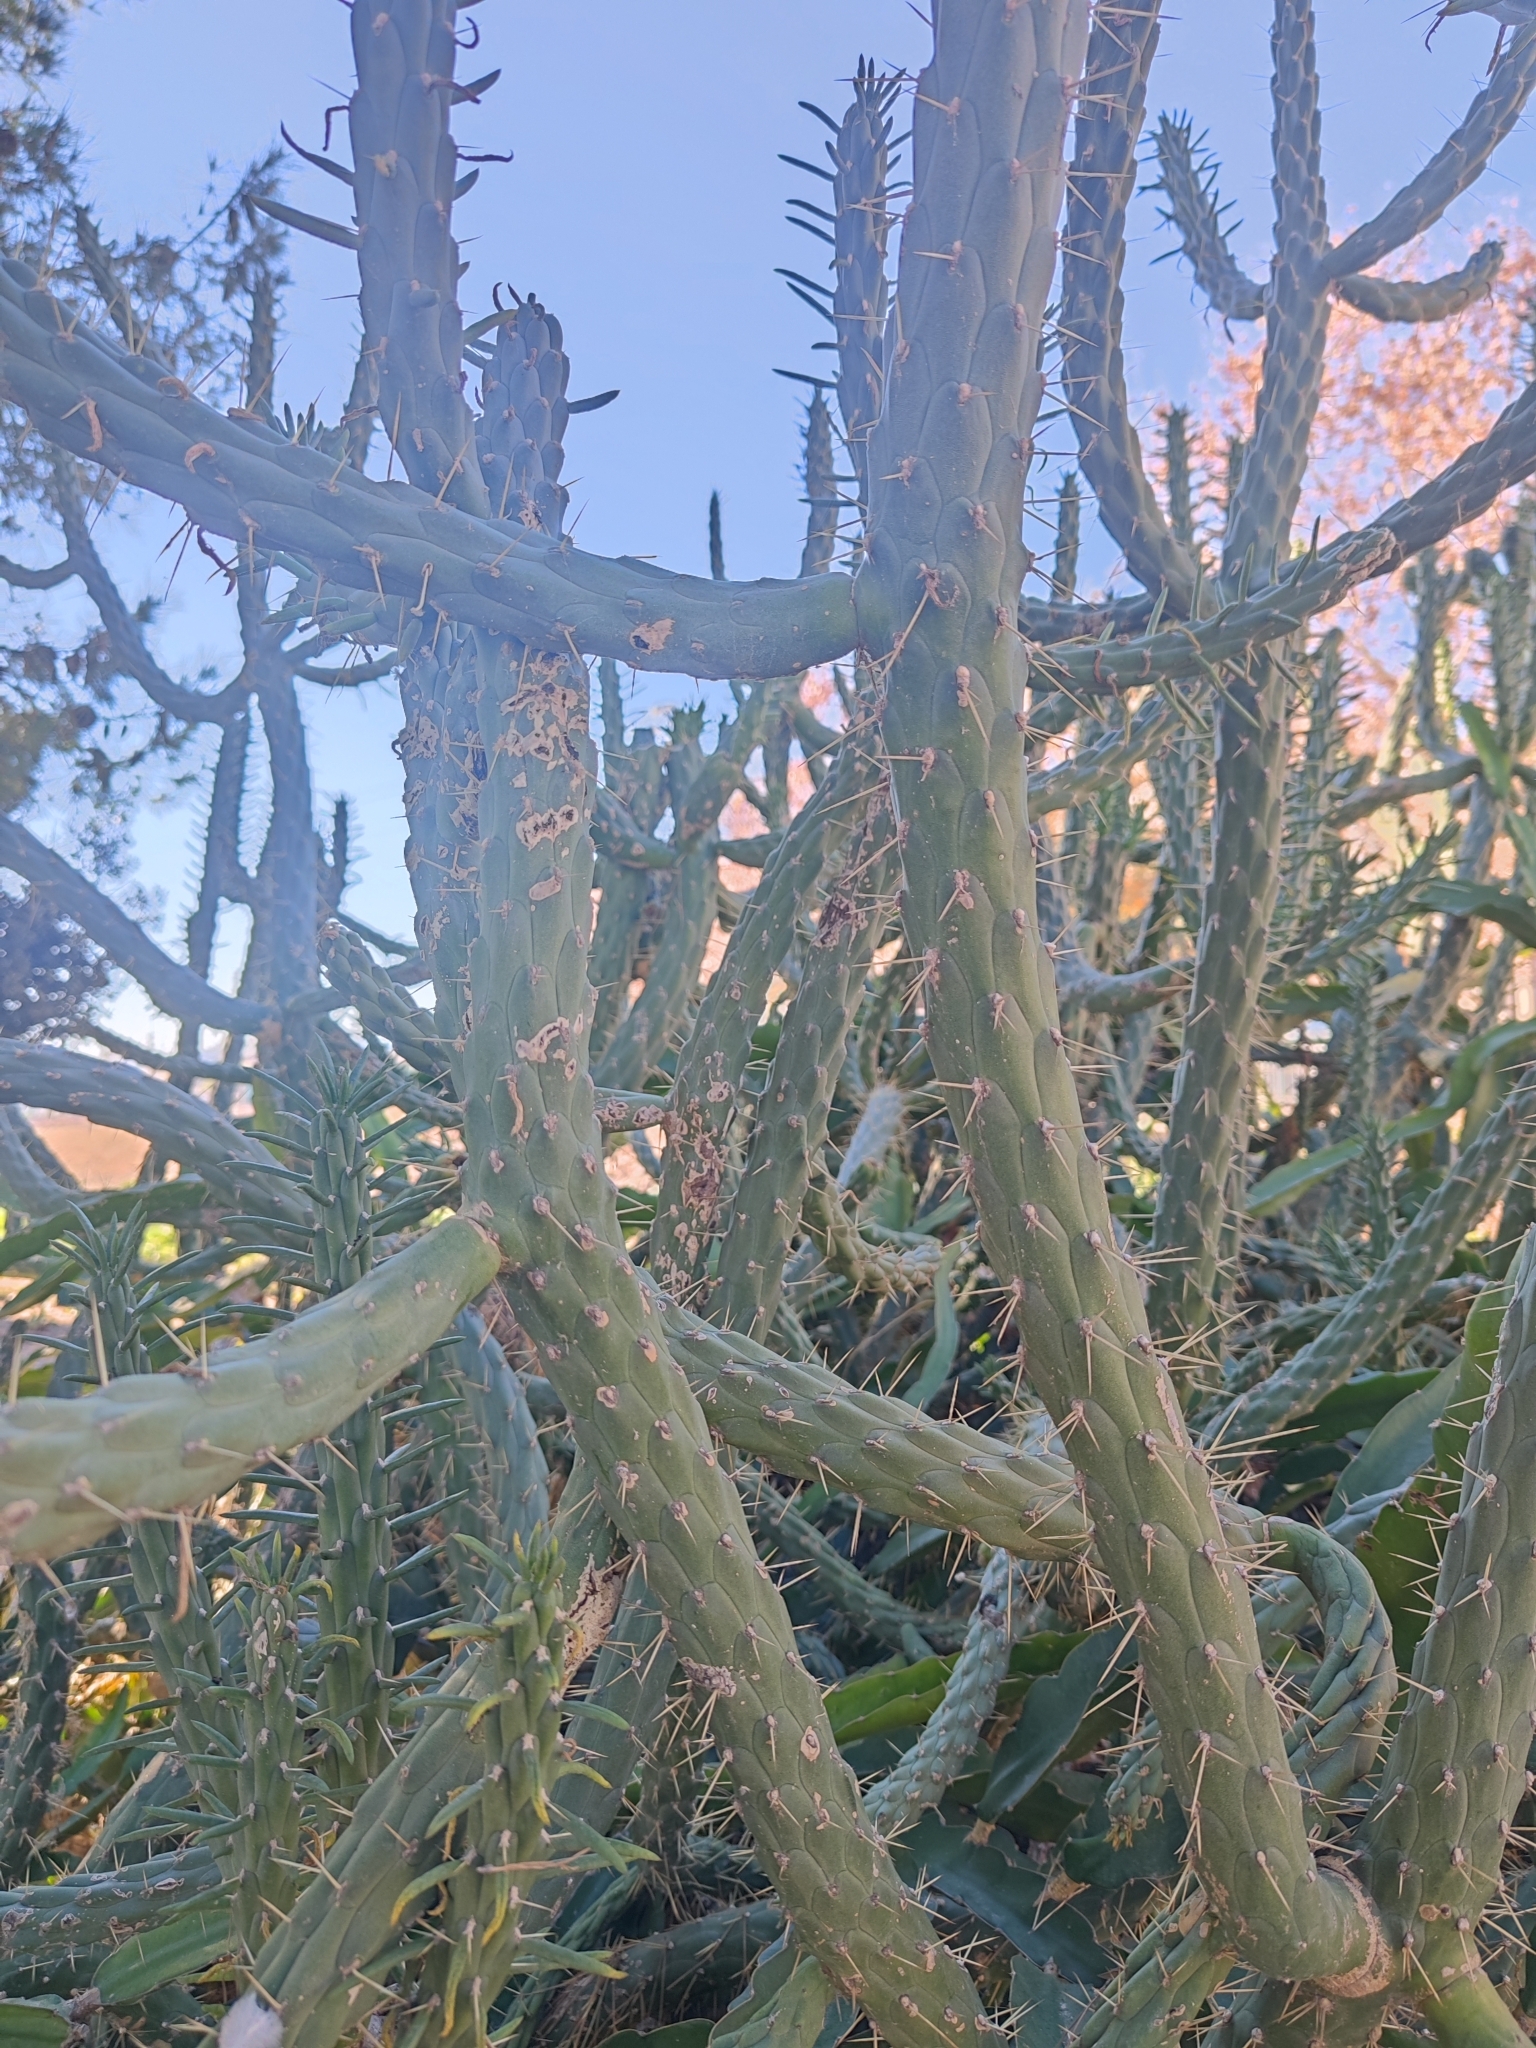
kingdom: Plantae
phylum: Tracheophyta
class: Magnoliopsida
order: Caryophyllales
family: Cactaceae
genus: Austrocylindropuntia
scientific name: Austrocylindropuntia subulata
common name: Eve's needle cactus
